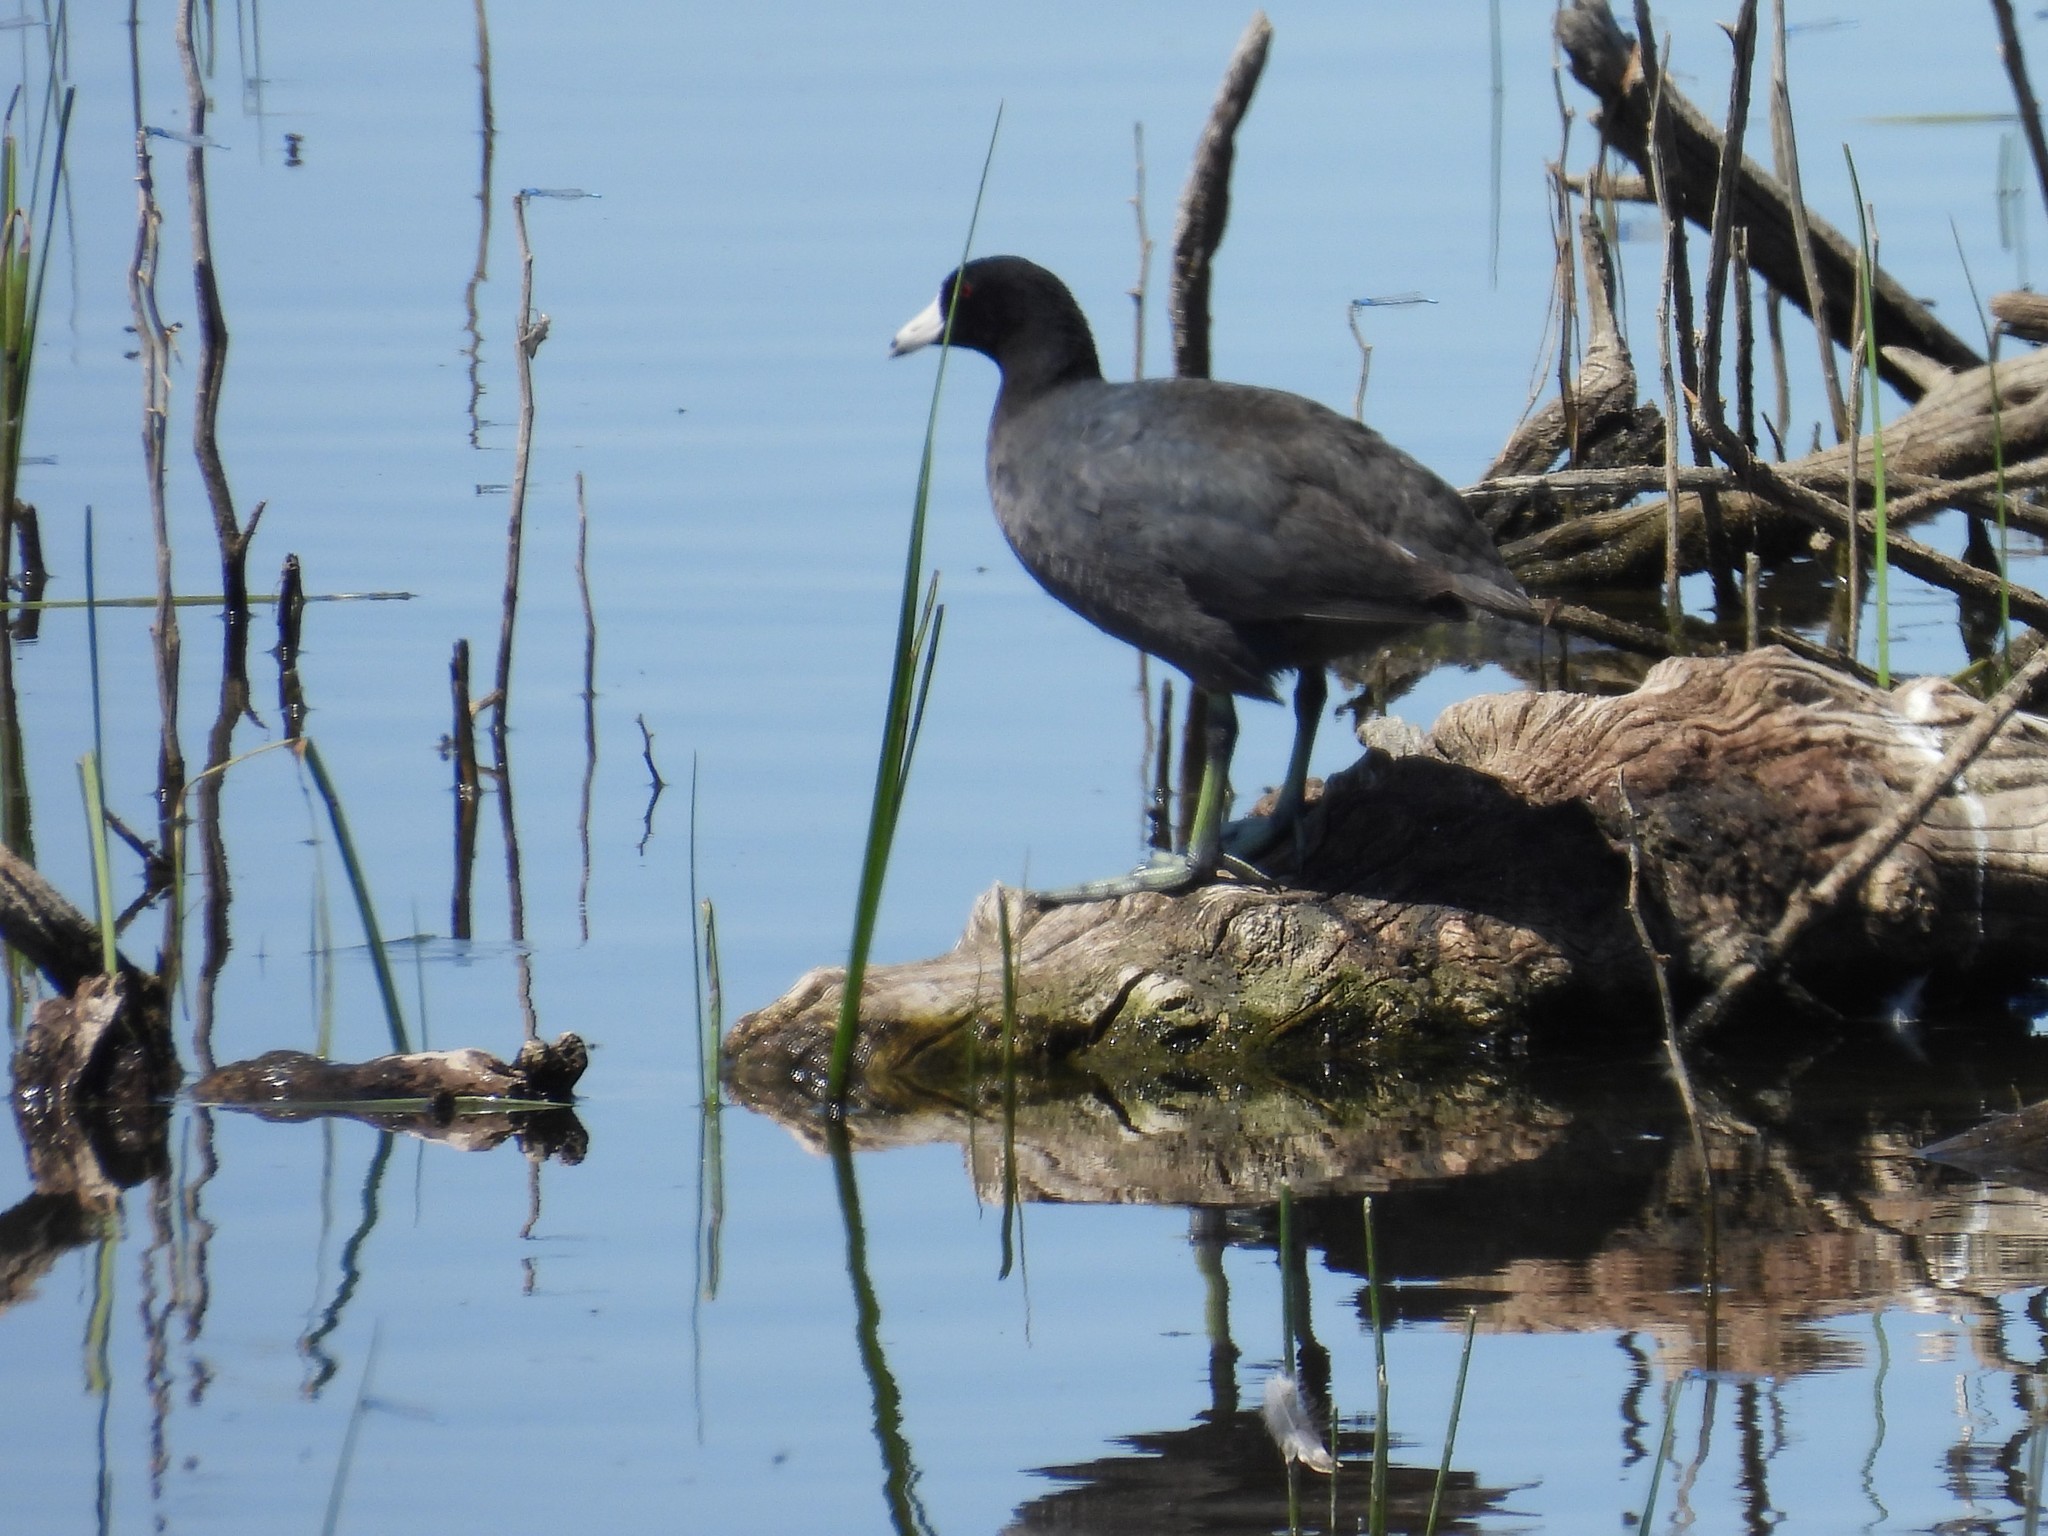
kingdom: Animalia
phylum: Chordata
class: Aves
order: Gruiformes
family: Rallidae
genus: Fulica
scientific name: Fulica americana
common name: American coot
